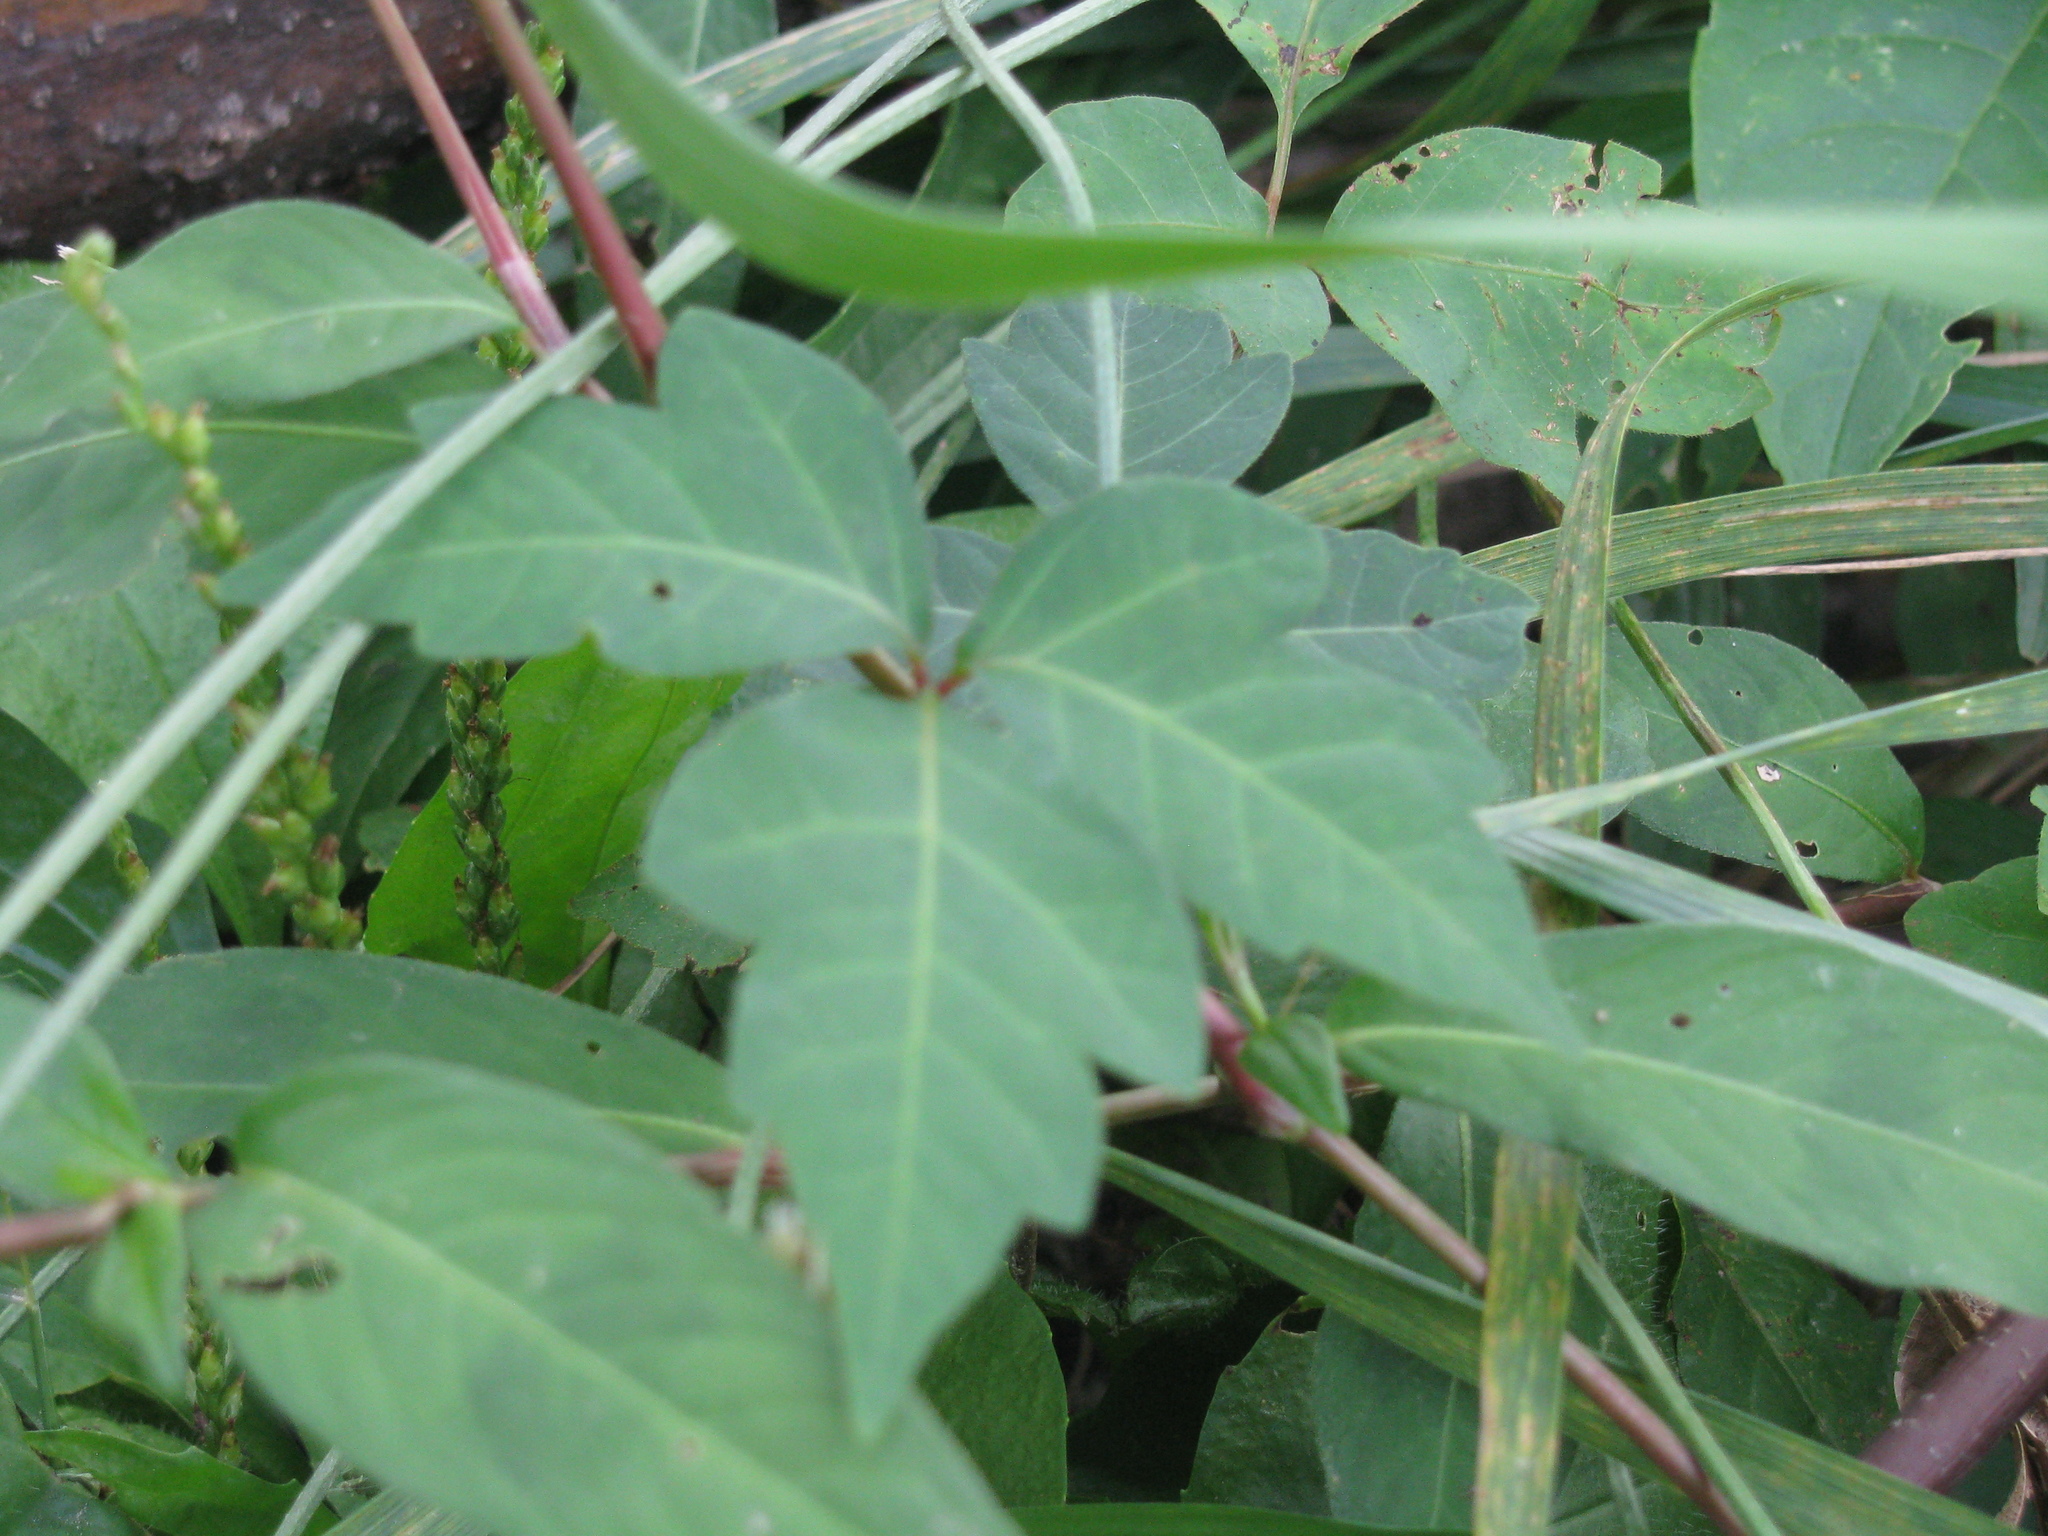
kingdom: Plantae
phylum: Tracheophyta
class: Magnoliopsida
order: Sapindales
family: Anacardiaceae
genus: Toxicodendron
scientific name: Toxicodendron radicans
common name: Poison ivy
